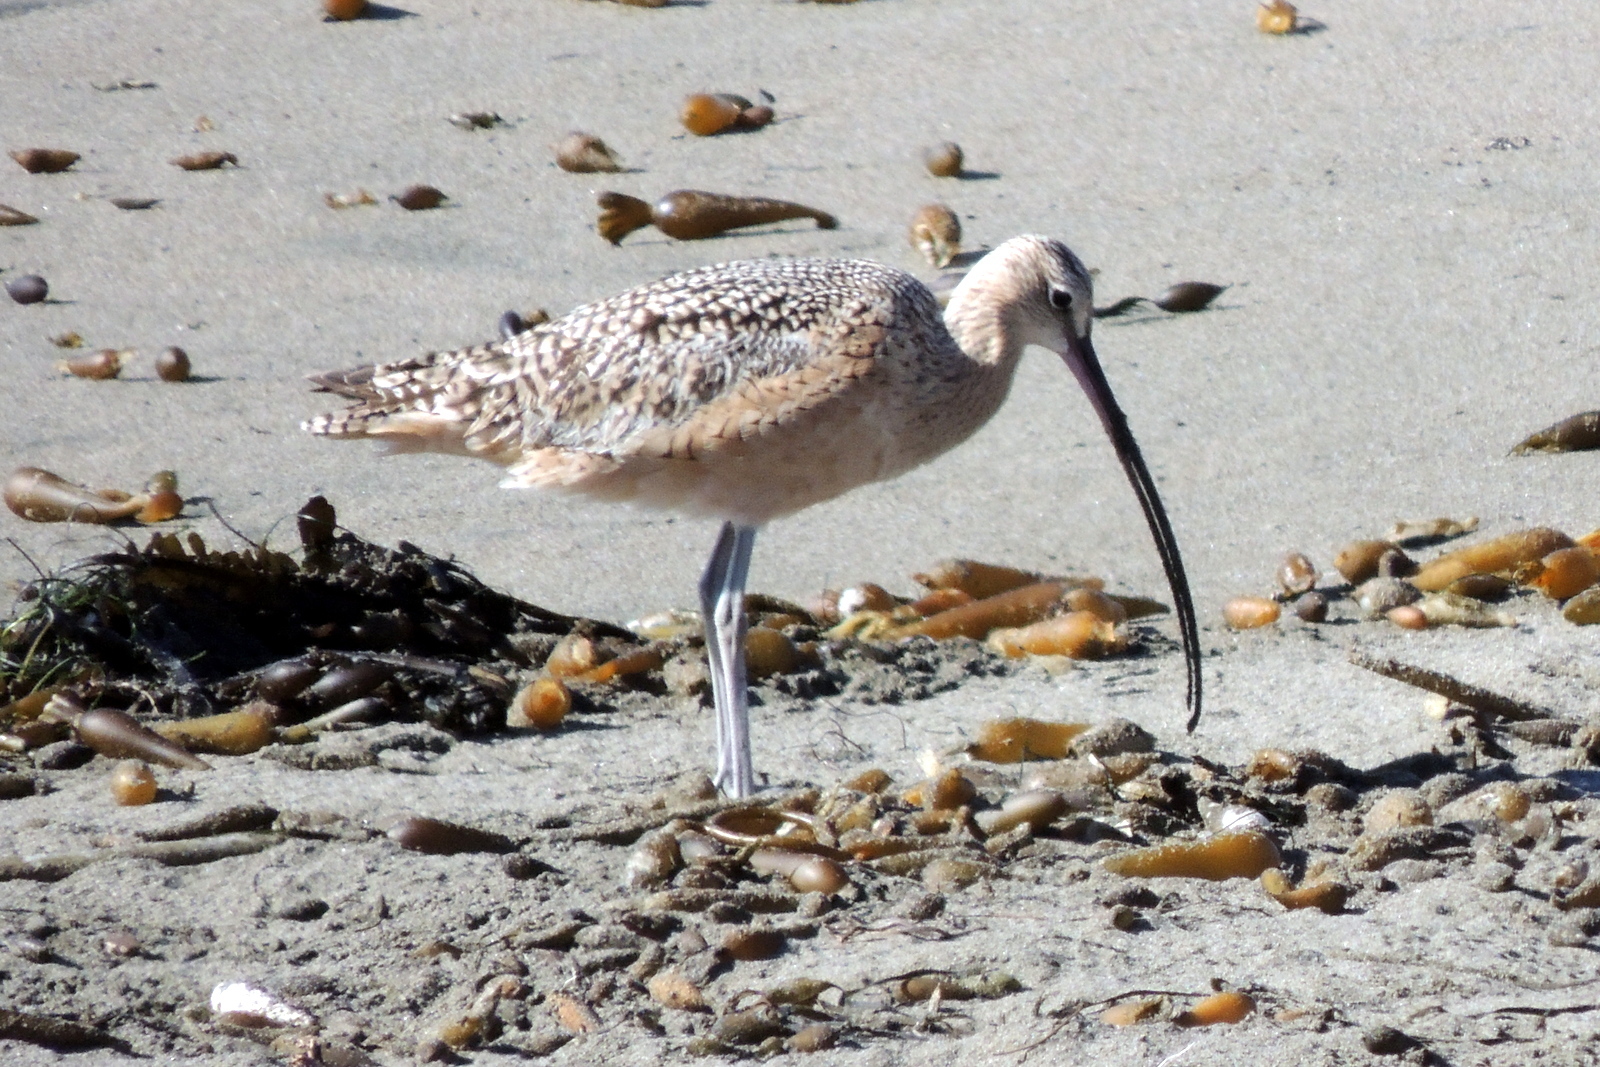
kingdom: Animalia
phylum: Chordata
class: Aves
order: Charadriiformes
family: Scolopacidae
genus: Numenius
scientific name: Numenius americanus
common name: Long-billed curlew
